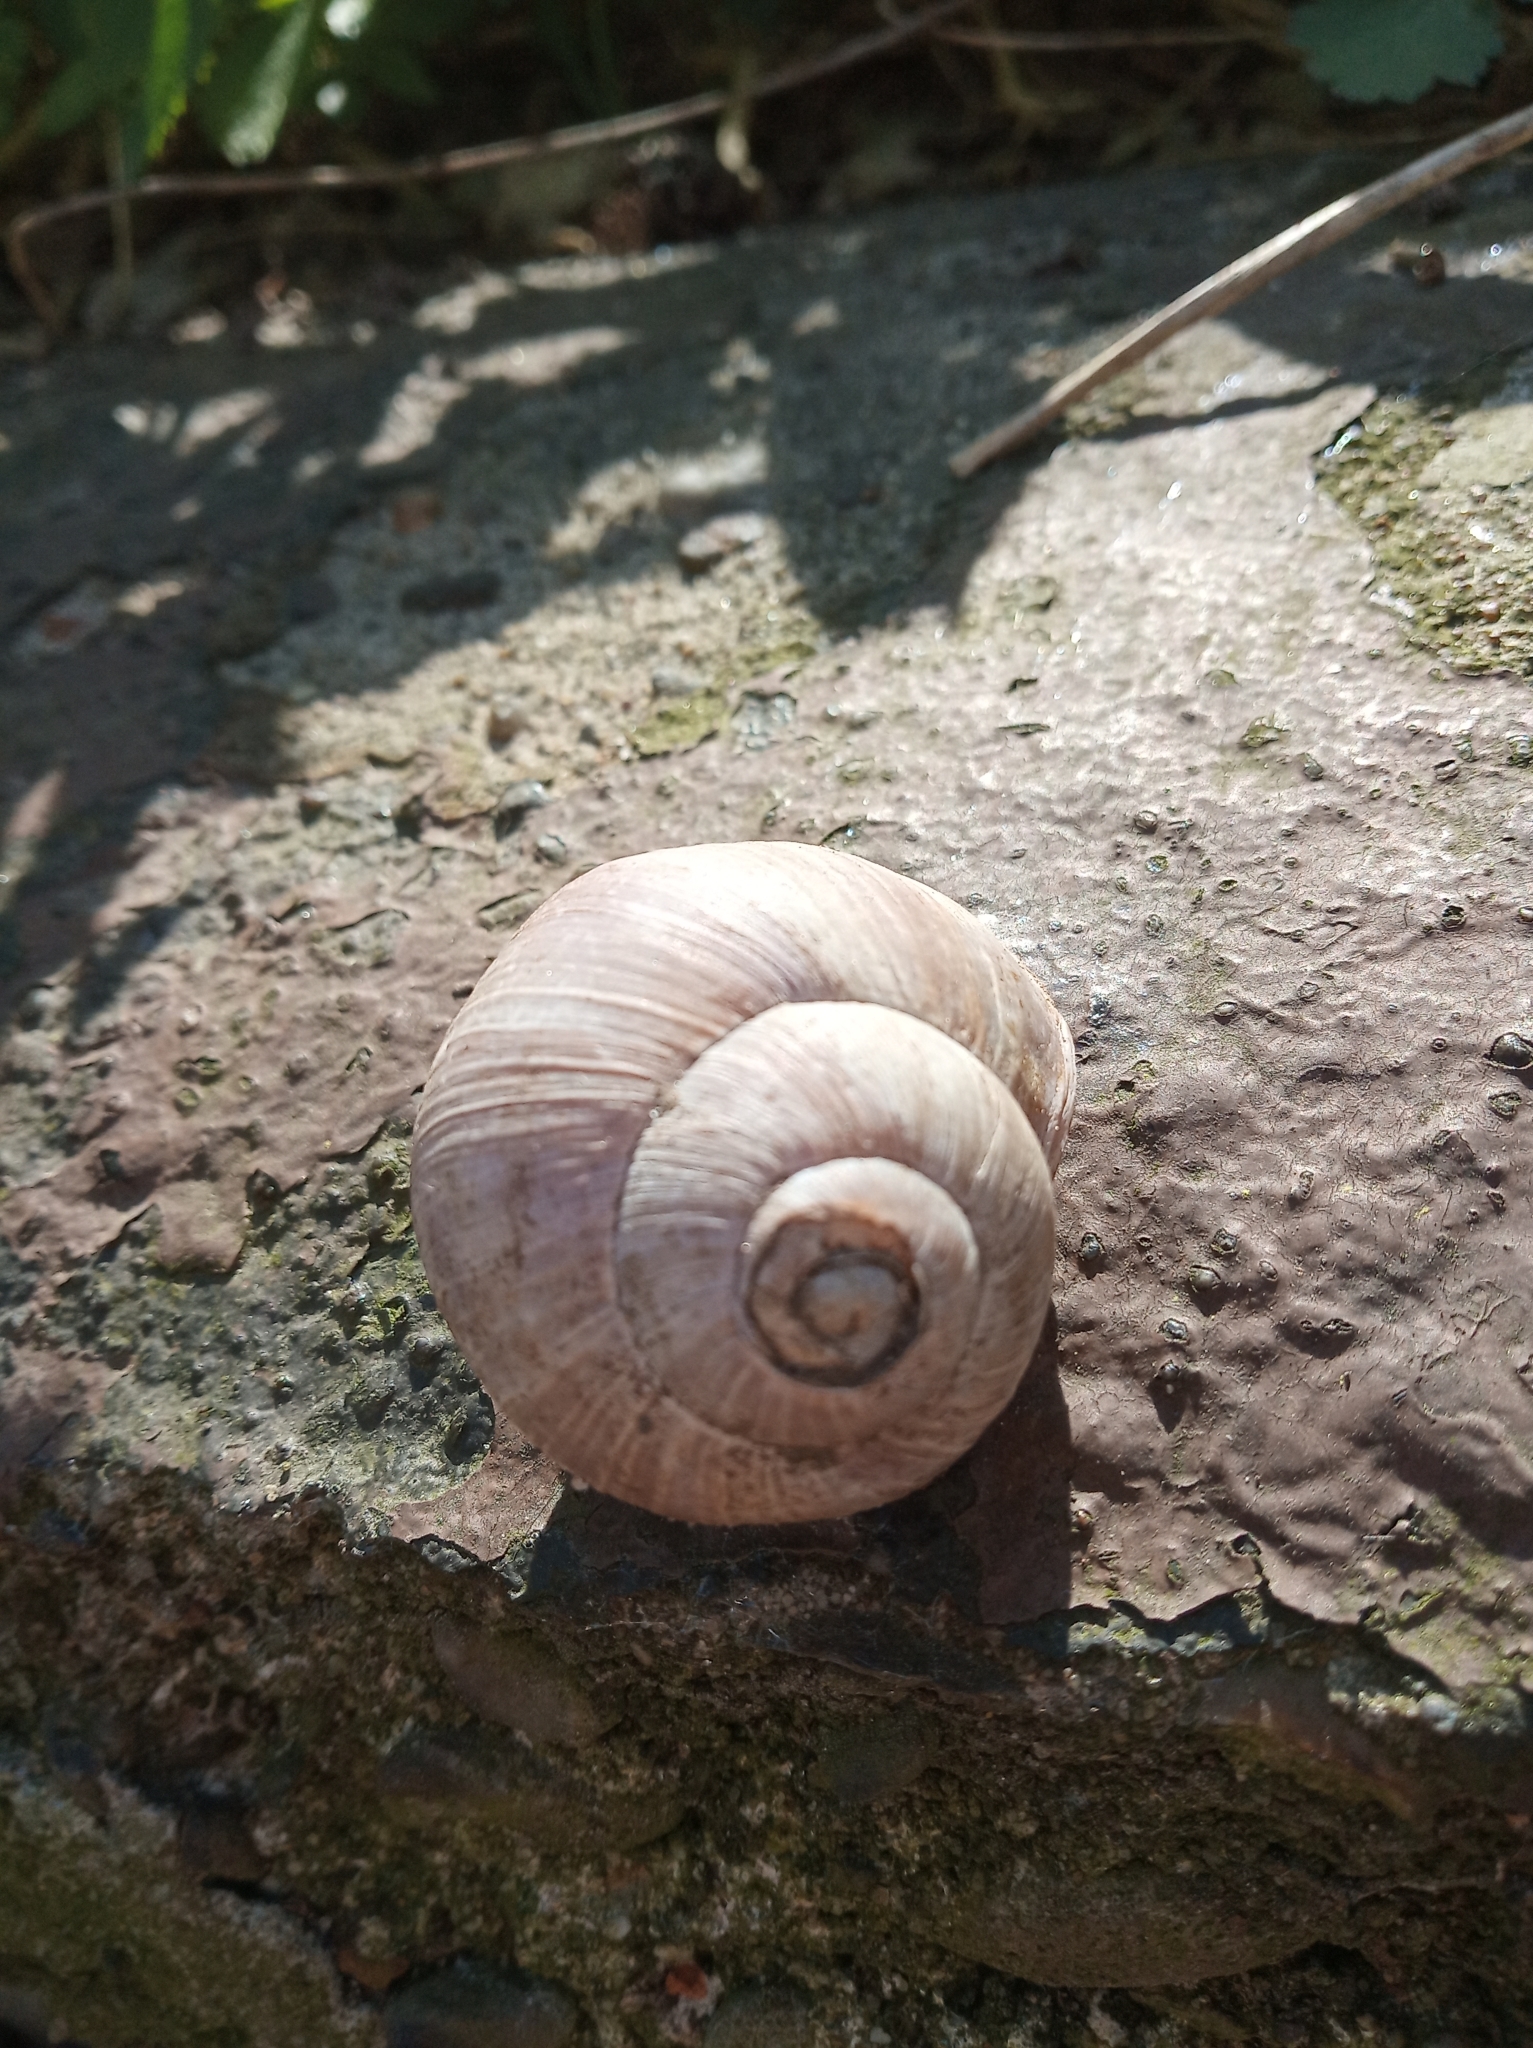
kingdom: Animalia
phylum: Mollusca
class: Gastropoda
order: Stylommatophora
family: Helicidae
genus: Helix
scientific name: Helix pomatia
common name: Roman snail
